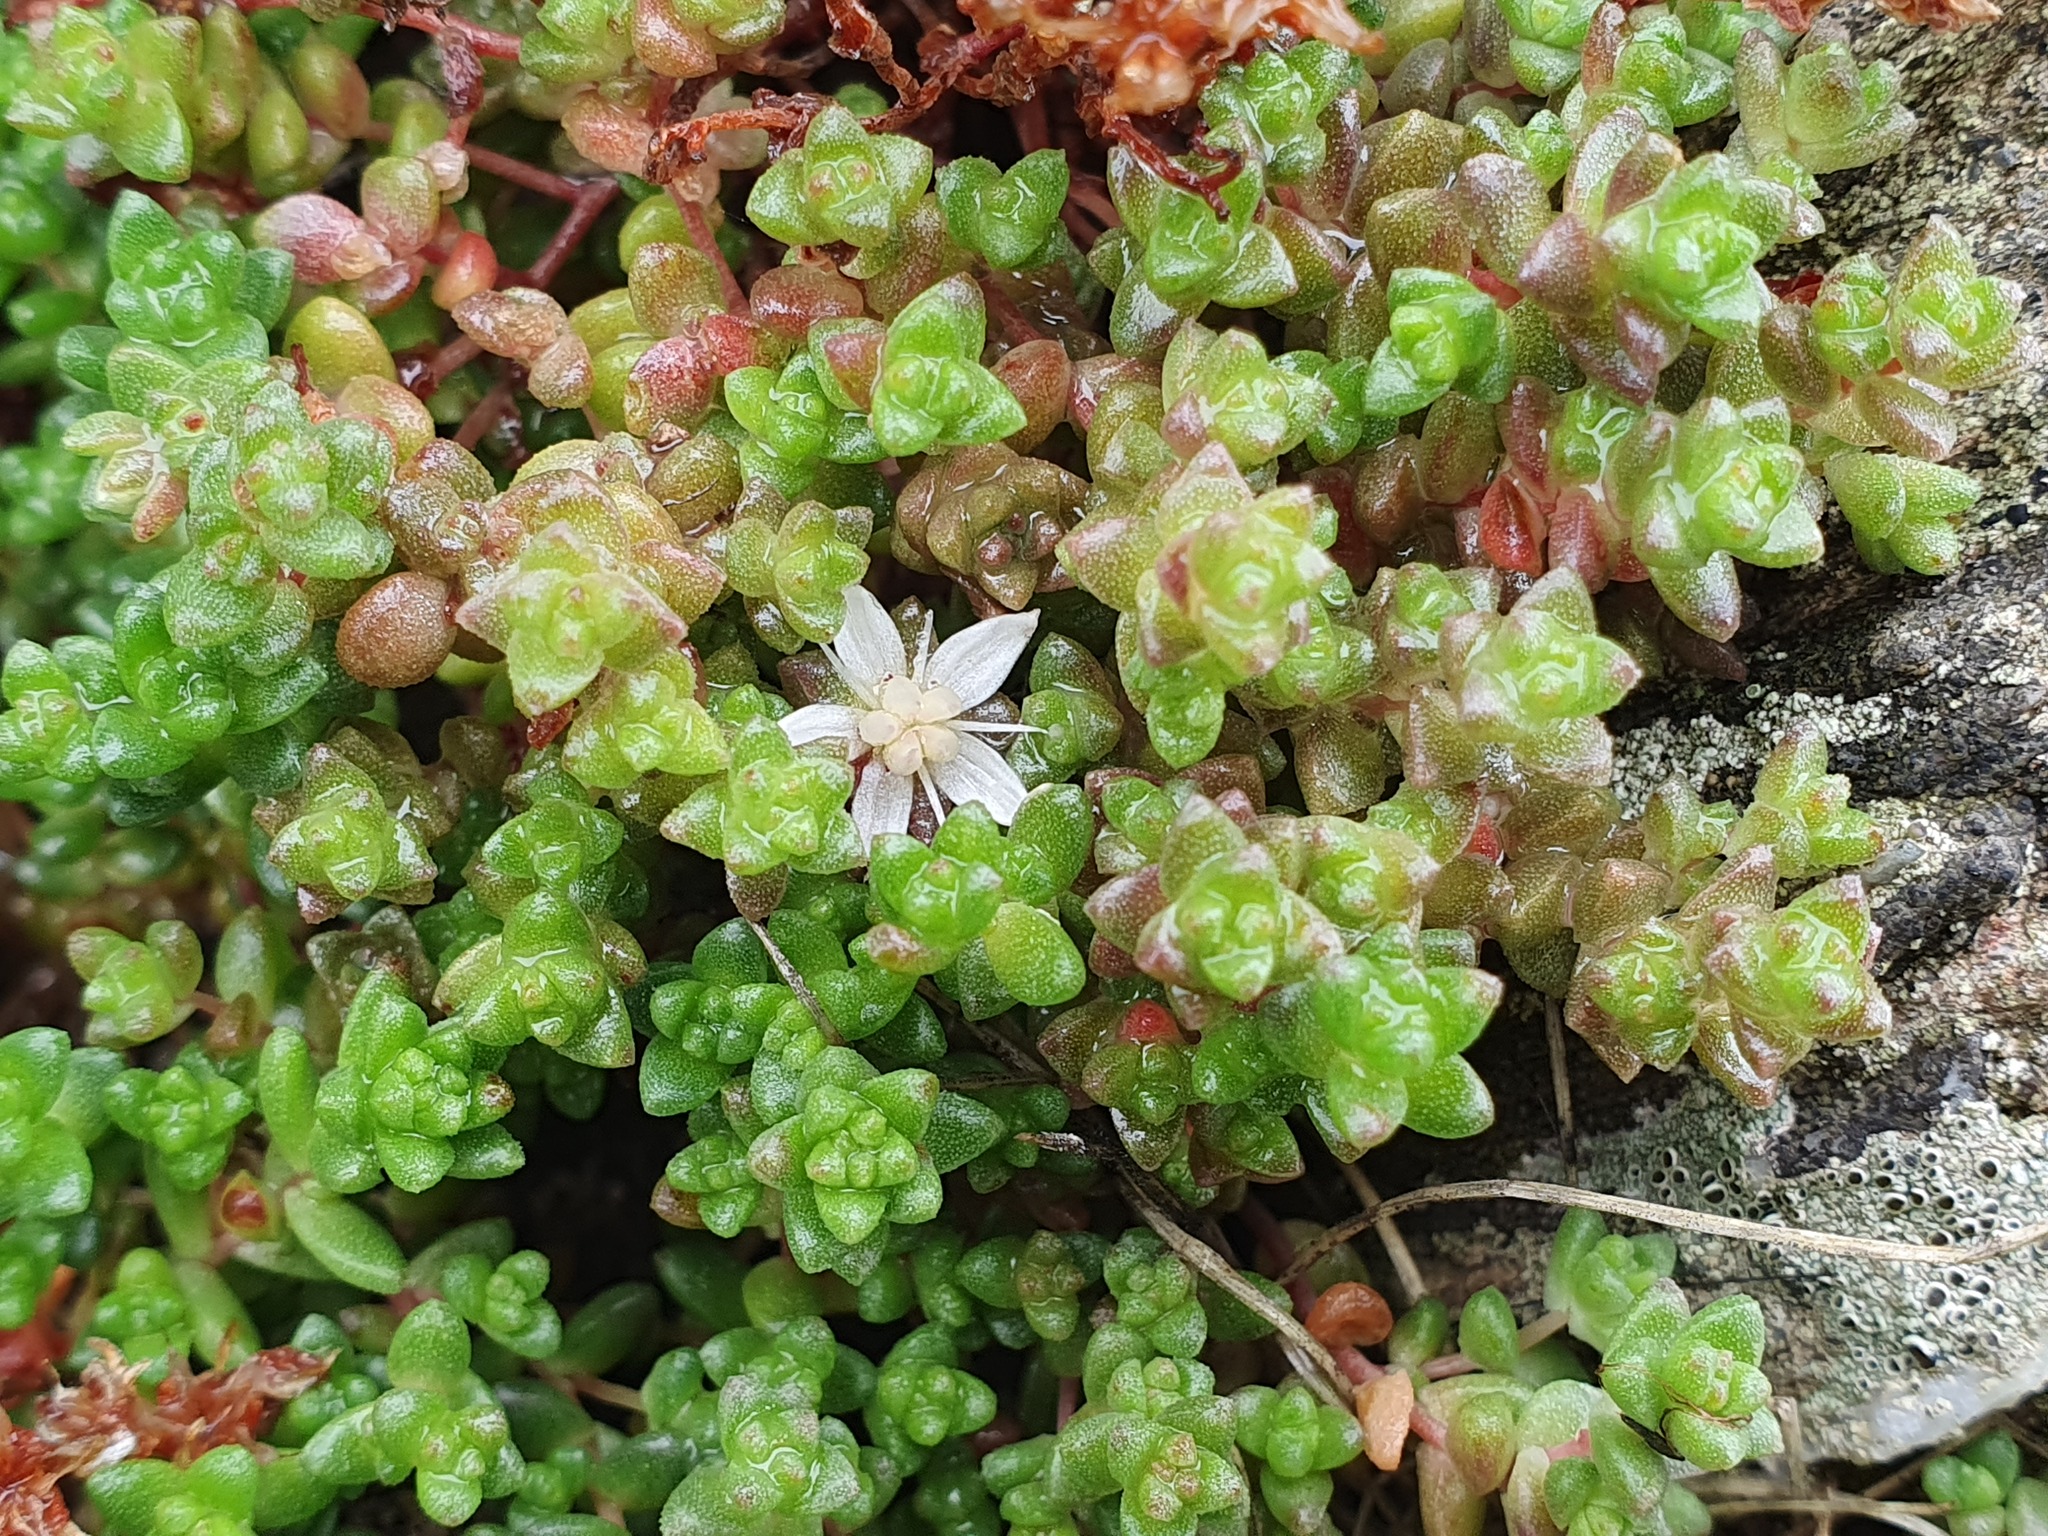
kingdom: Plantae
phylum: Tracheophyta
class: Magnoliopsida
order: Saxifragales
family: Crassulaceae
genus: Sedum
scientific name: Sedum anglicum
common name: English stonecrop
